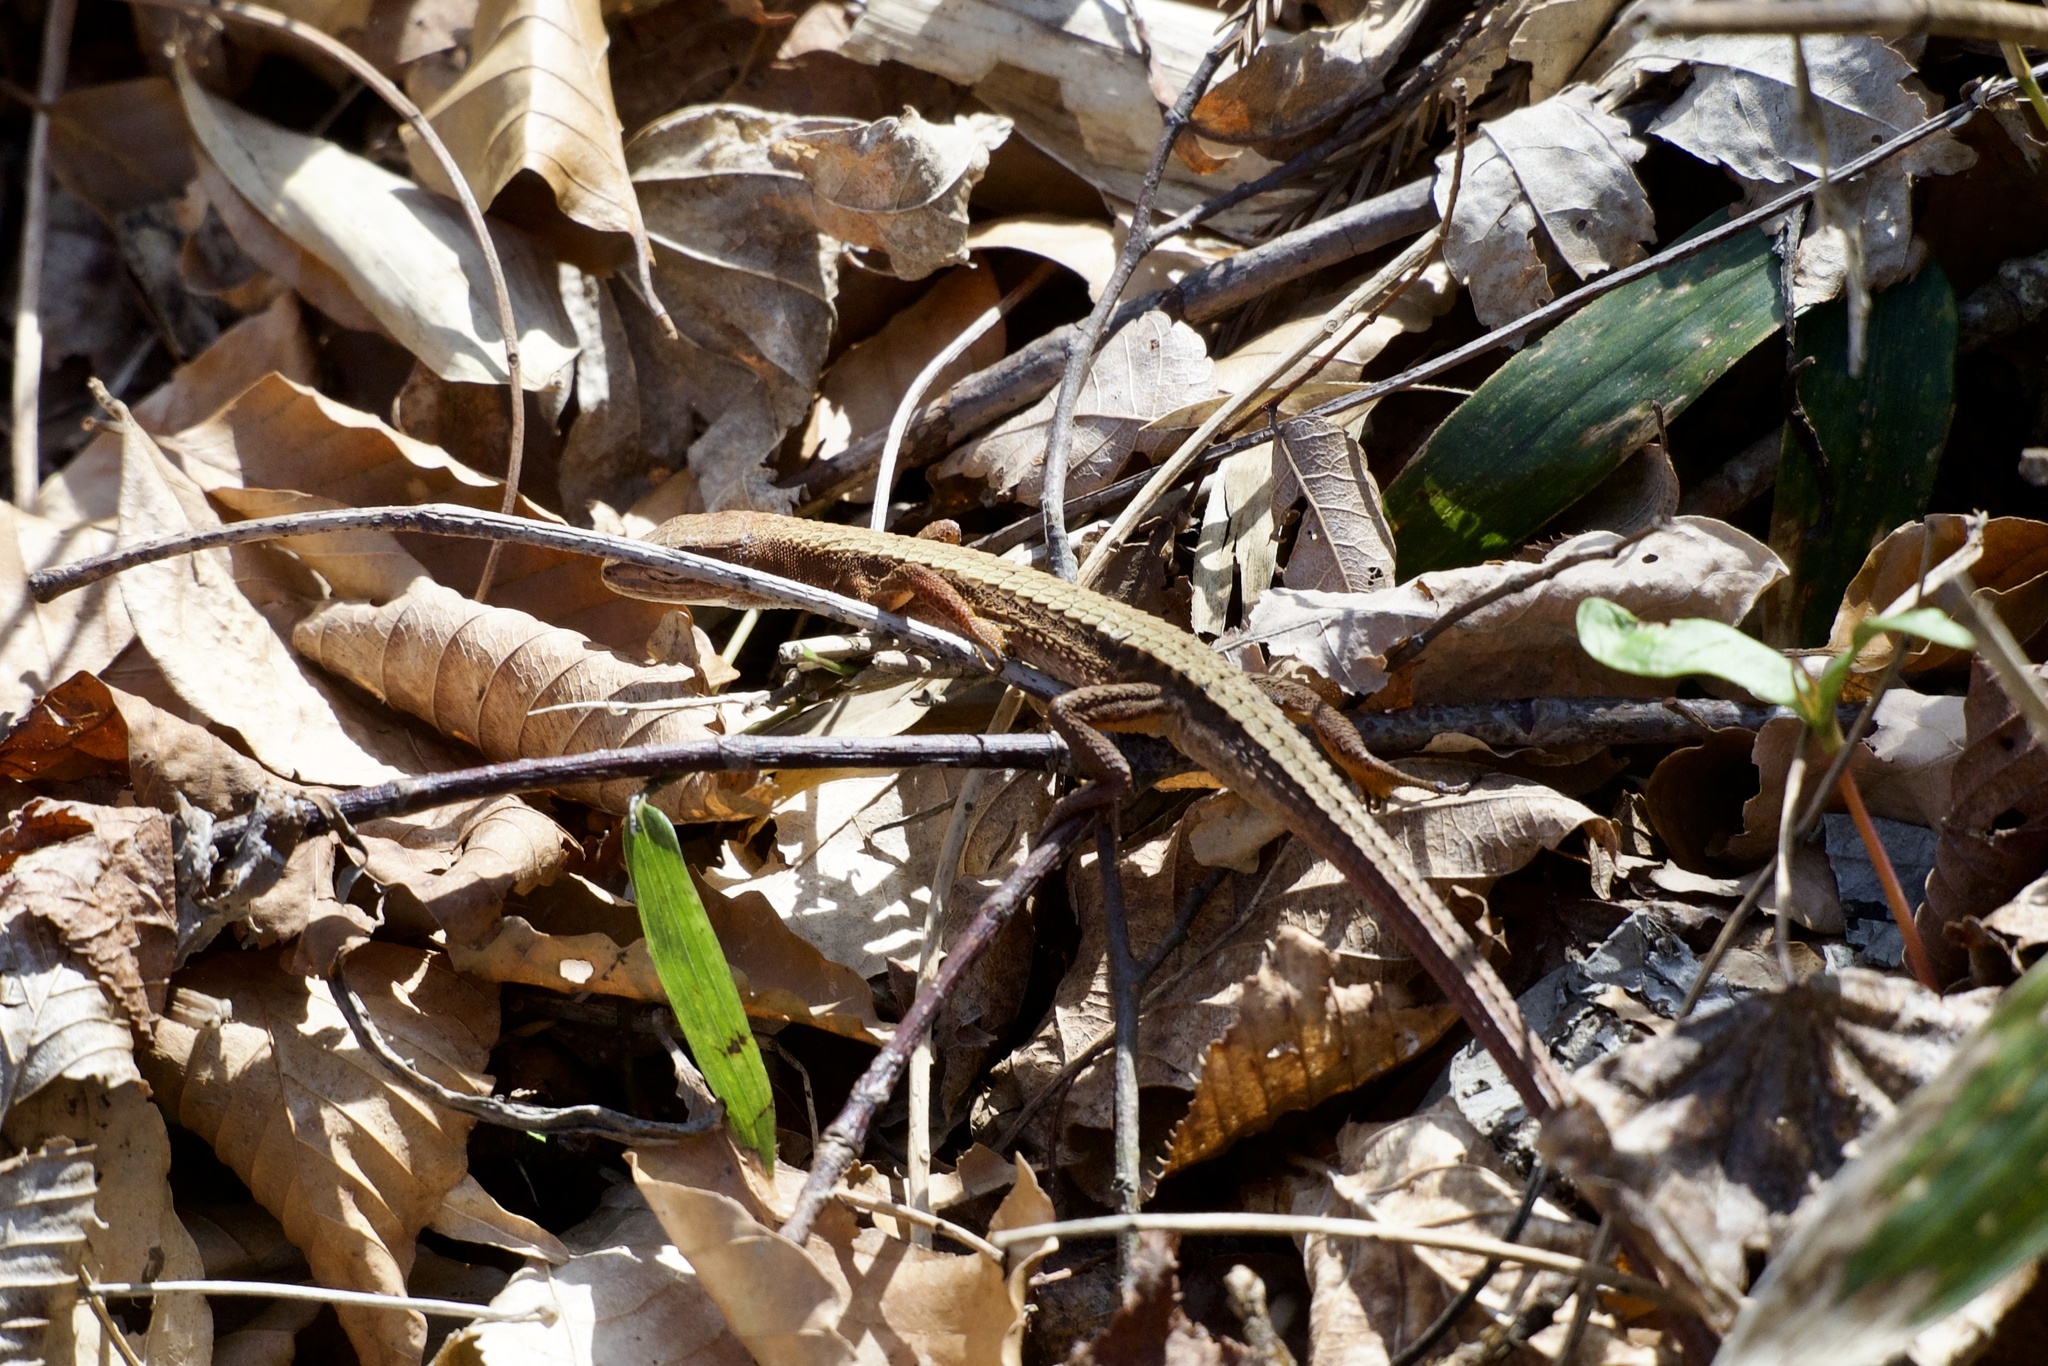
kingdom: Animalia
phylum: Chordata
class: Squamata
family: Lacertidae
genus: Takydromus
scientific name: Takydromus tachydromoides
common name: Japanese grass lizard
